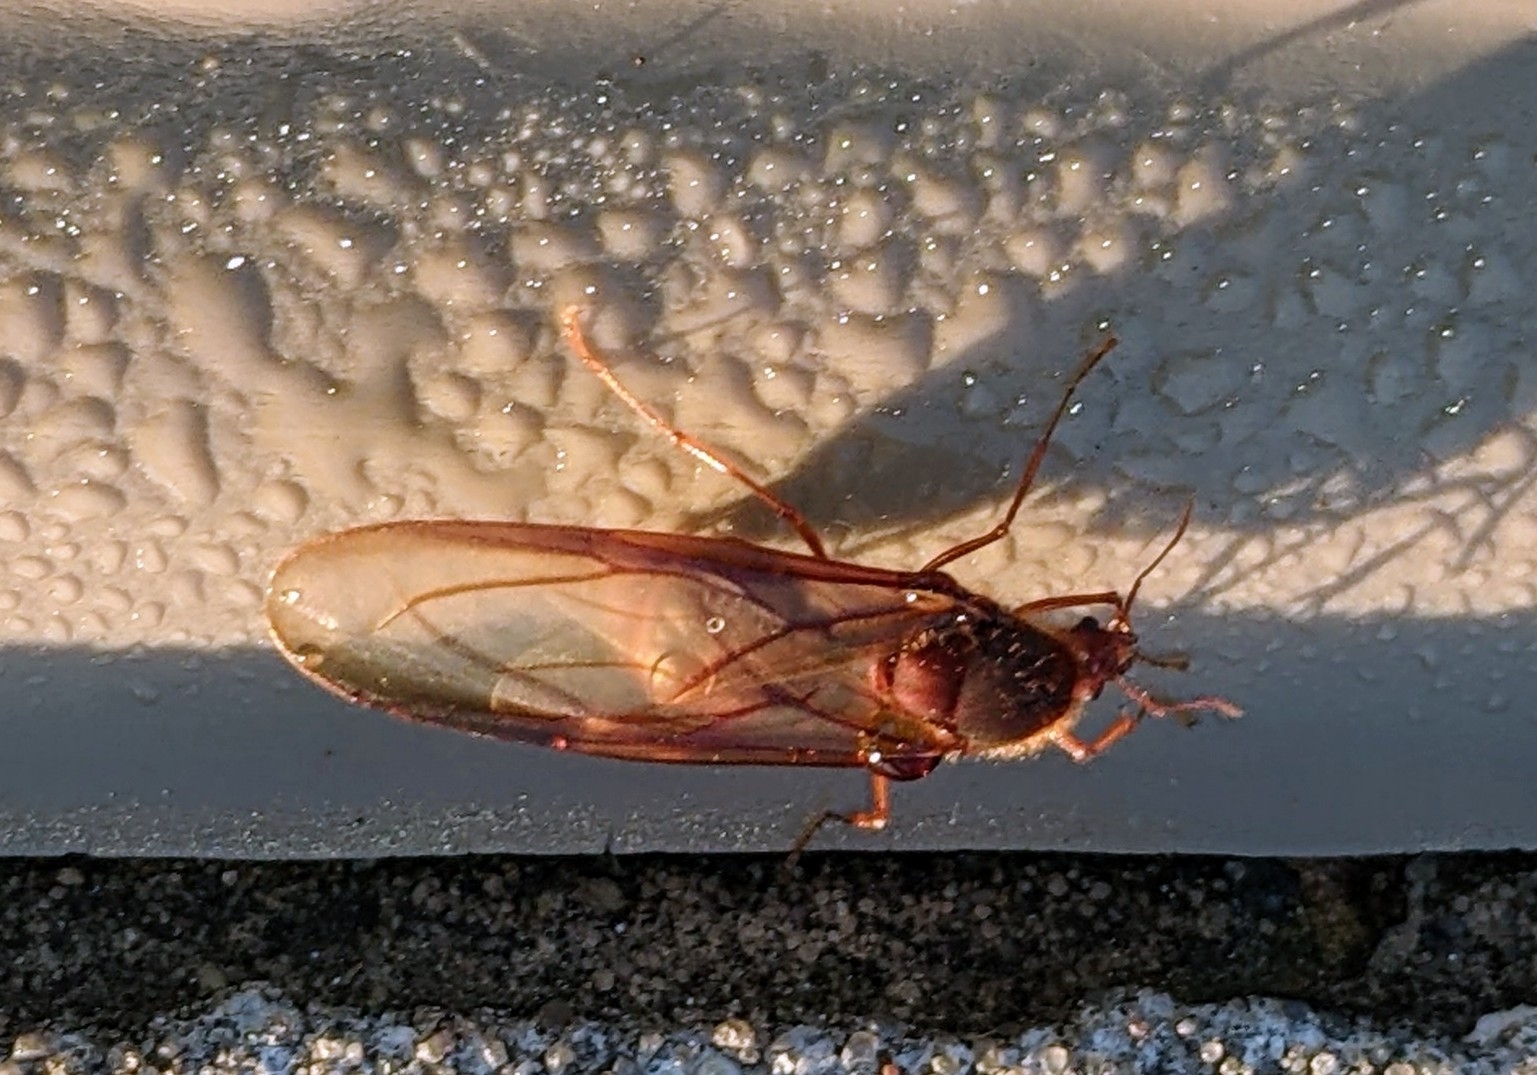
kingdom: Animalia
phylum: Arthropoda
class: Insecta
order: Hymenoptera
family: Formicidae
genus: Atta
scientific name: Atta texana
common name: Texas leafcutting ant
